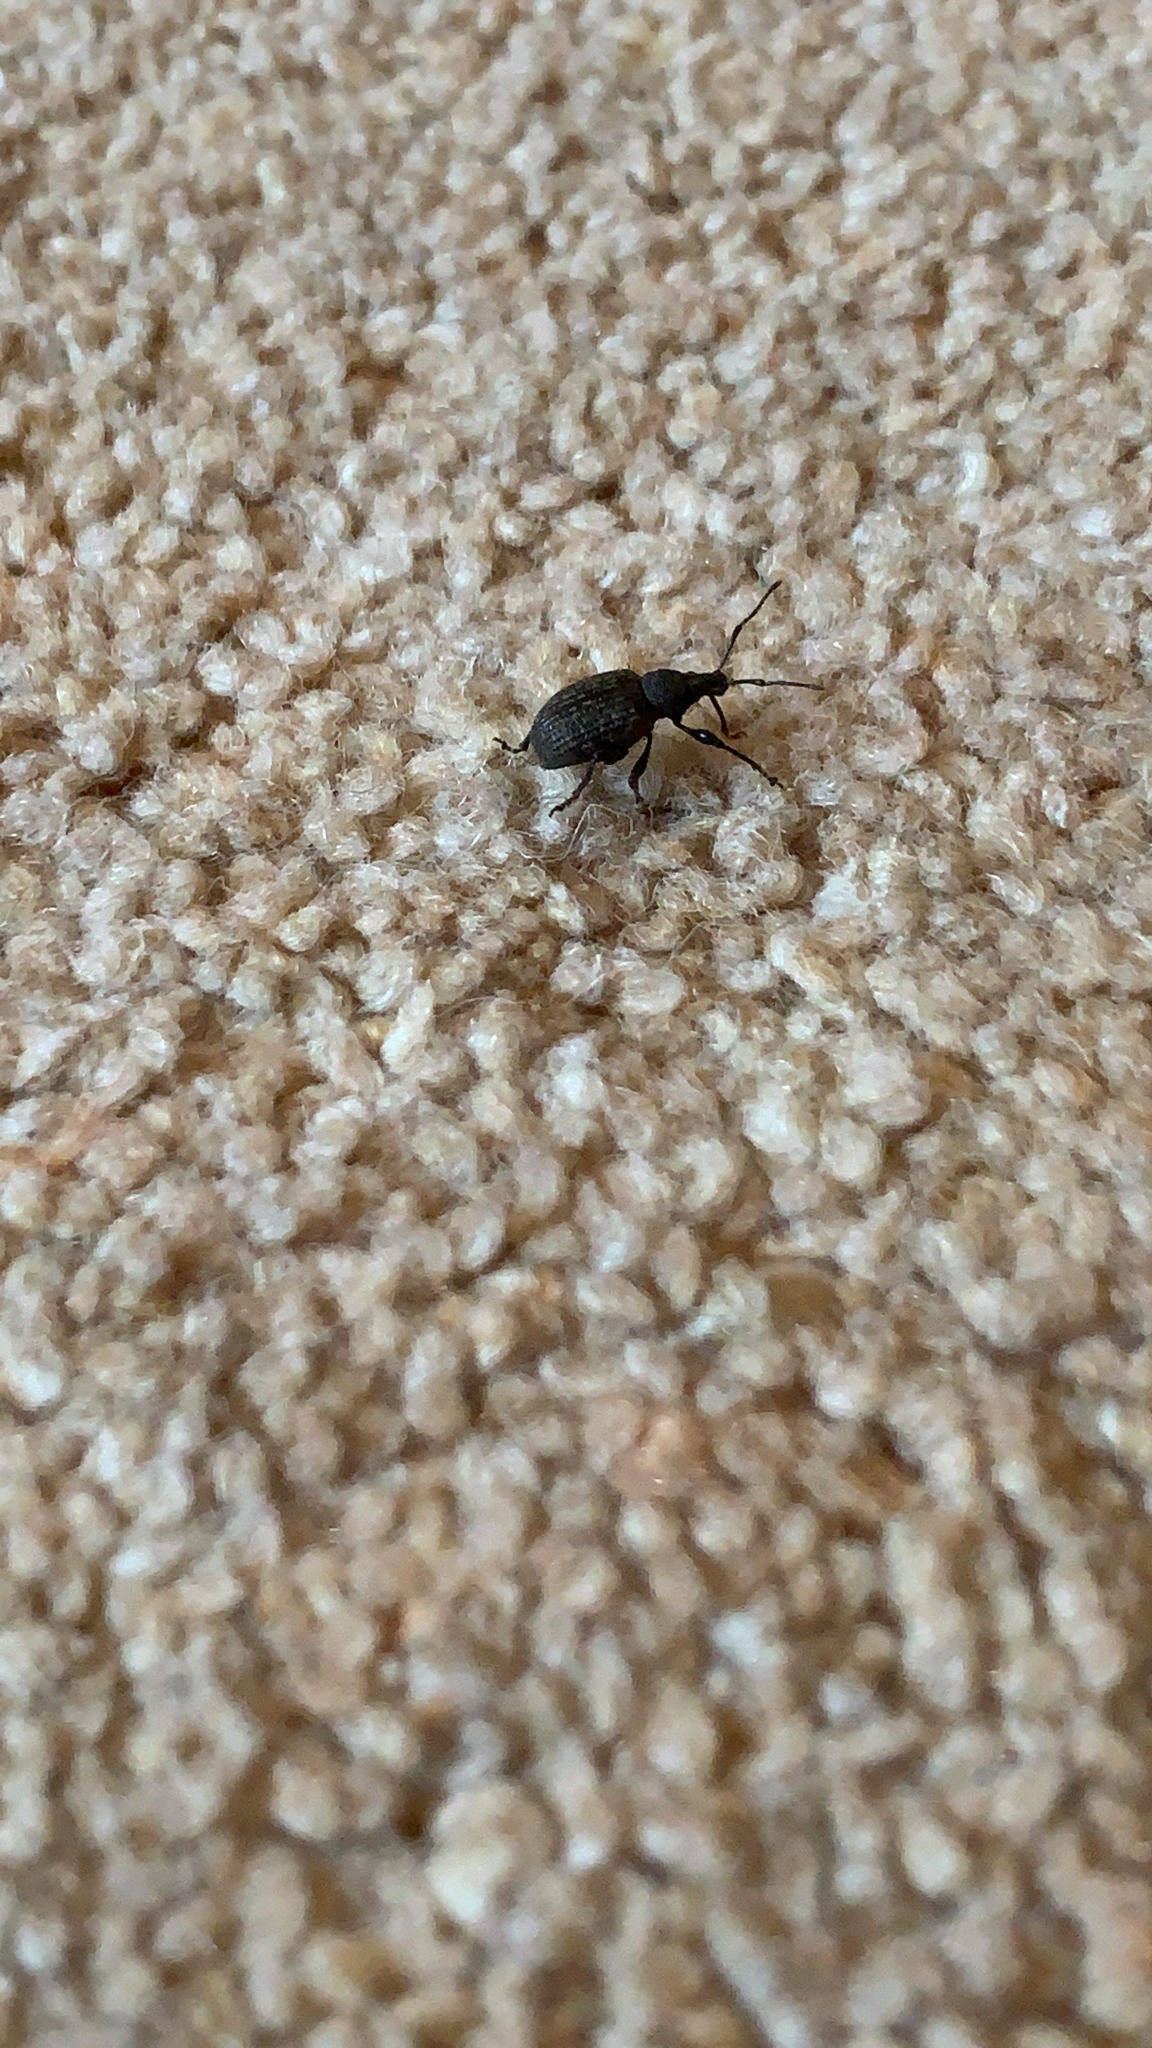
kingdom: Animalia
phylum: Arthropoda
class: Insecta
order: Coleoptera
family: Curculionidae
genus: Otiorhynchus
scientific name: Otiorhynchus sulcatus
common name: Black vine weevil
